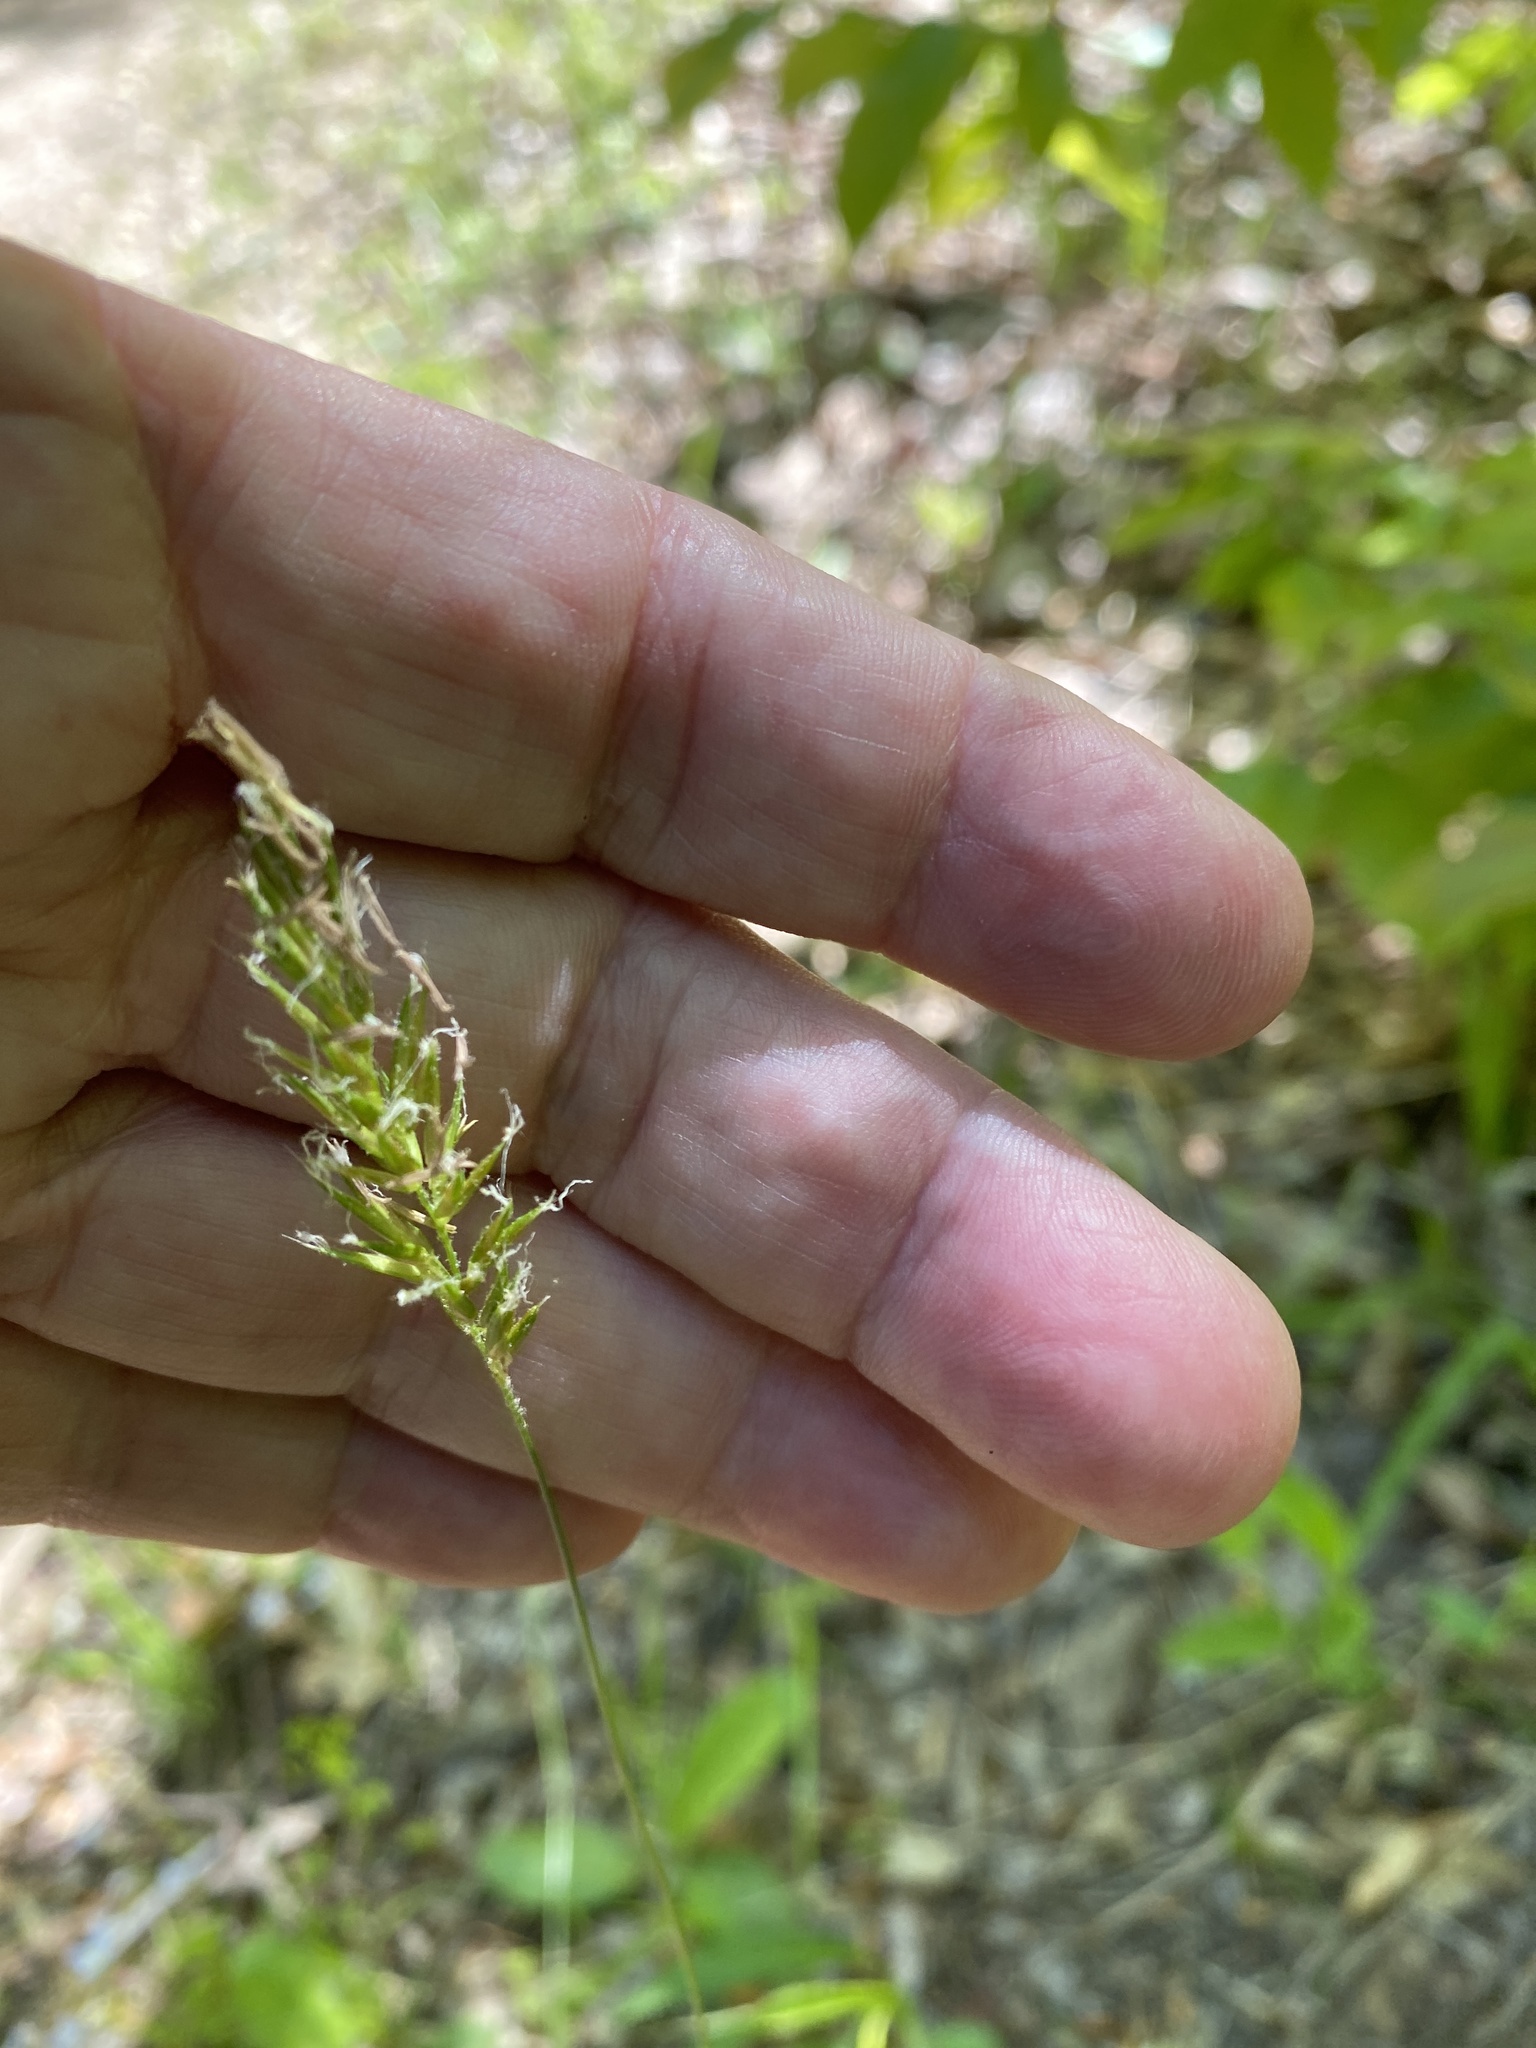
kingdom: Plantae
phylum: Tracheophyta
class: Liliopsida
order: Poales
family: Poaceae
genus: Anthoxanthum
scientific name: Anthoxanthum odoratum
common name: Sweet vernalgrass
